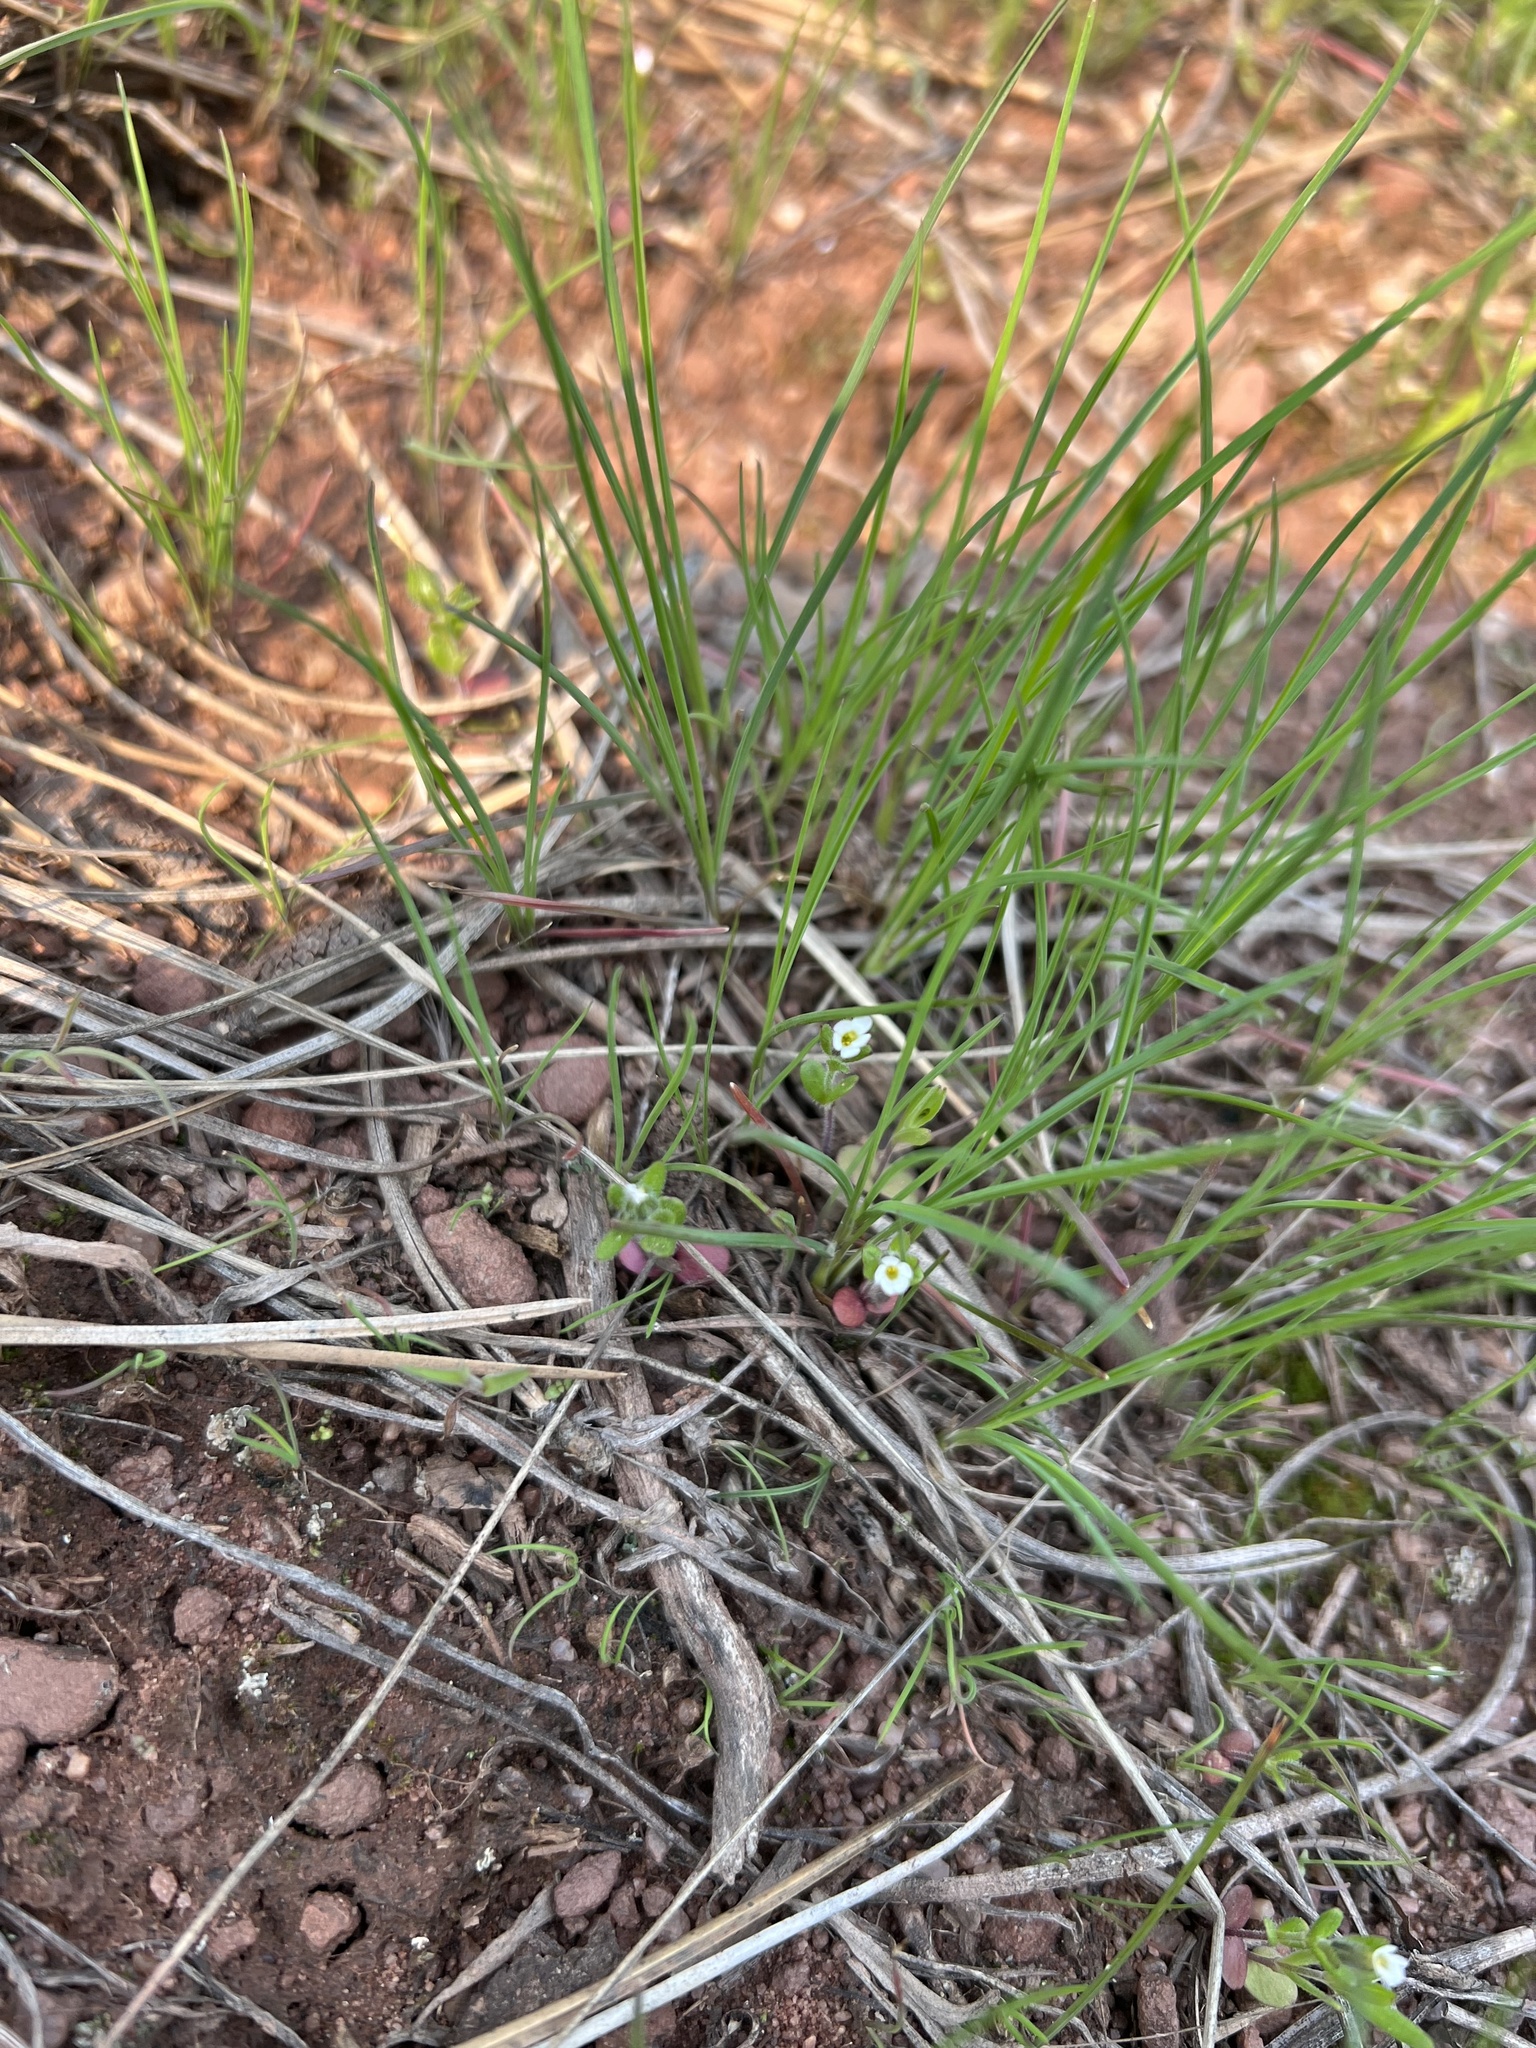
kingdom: Plantae
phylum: Tracheophyta
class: Magnoliopsida
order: Ericales
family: Polemoniaceae
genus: Phlox
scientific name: Phlox gracilis
